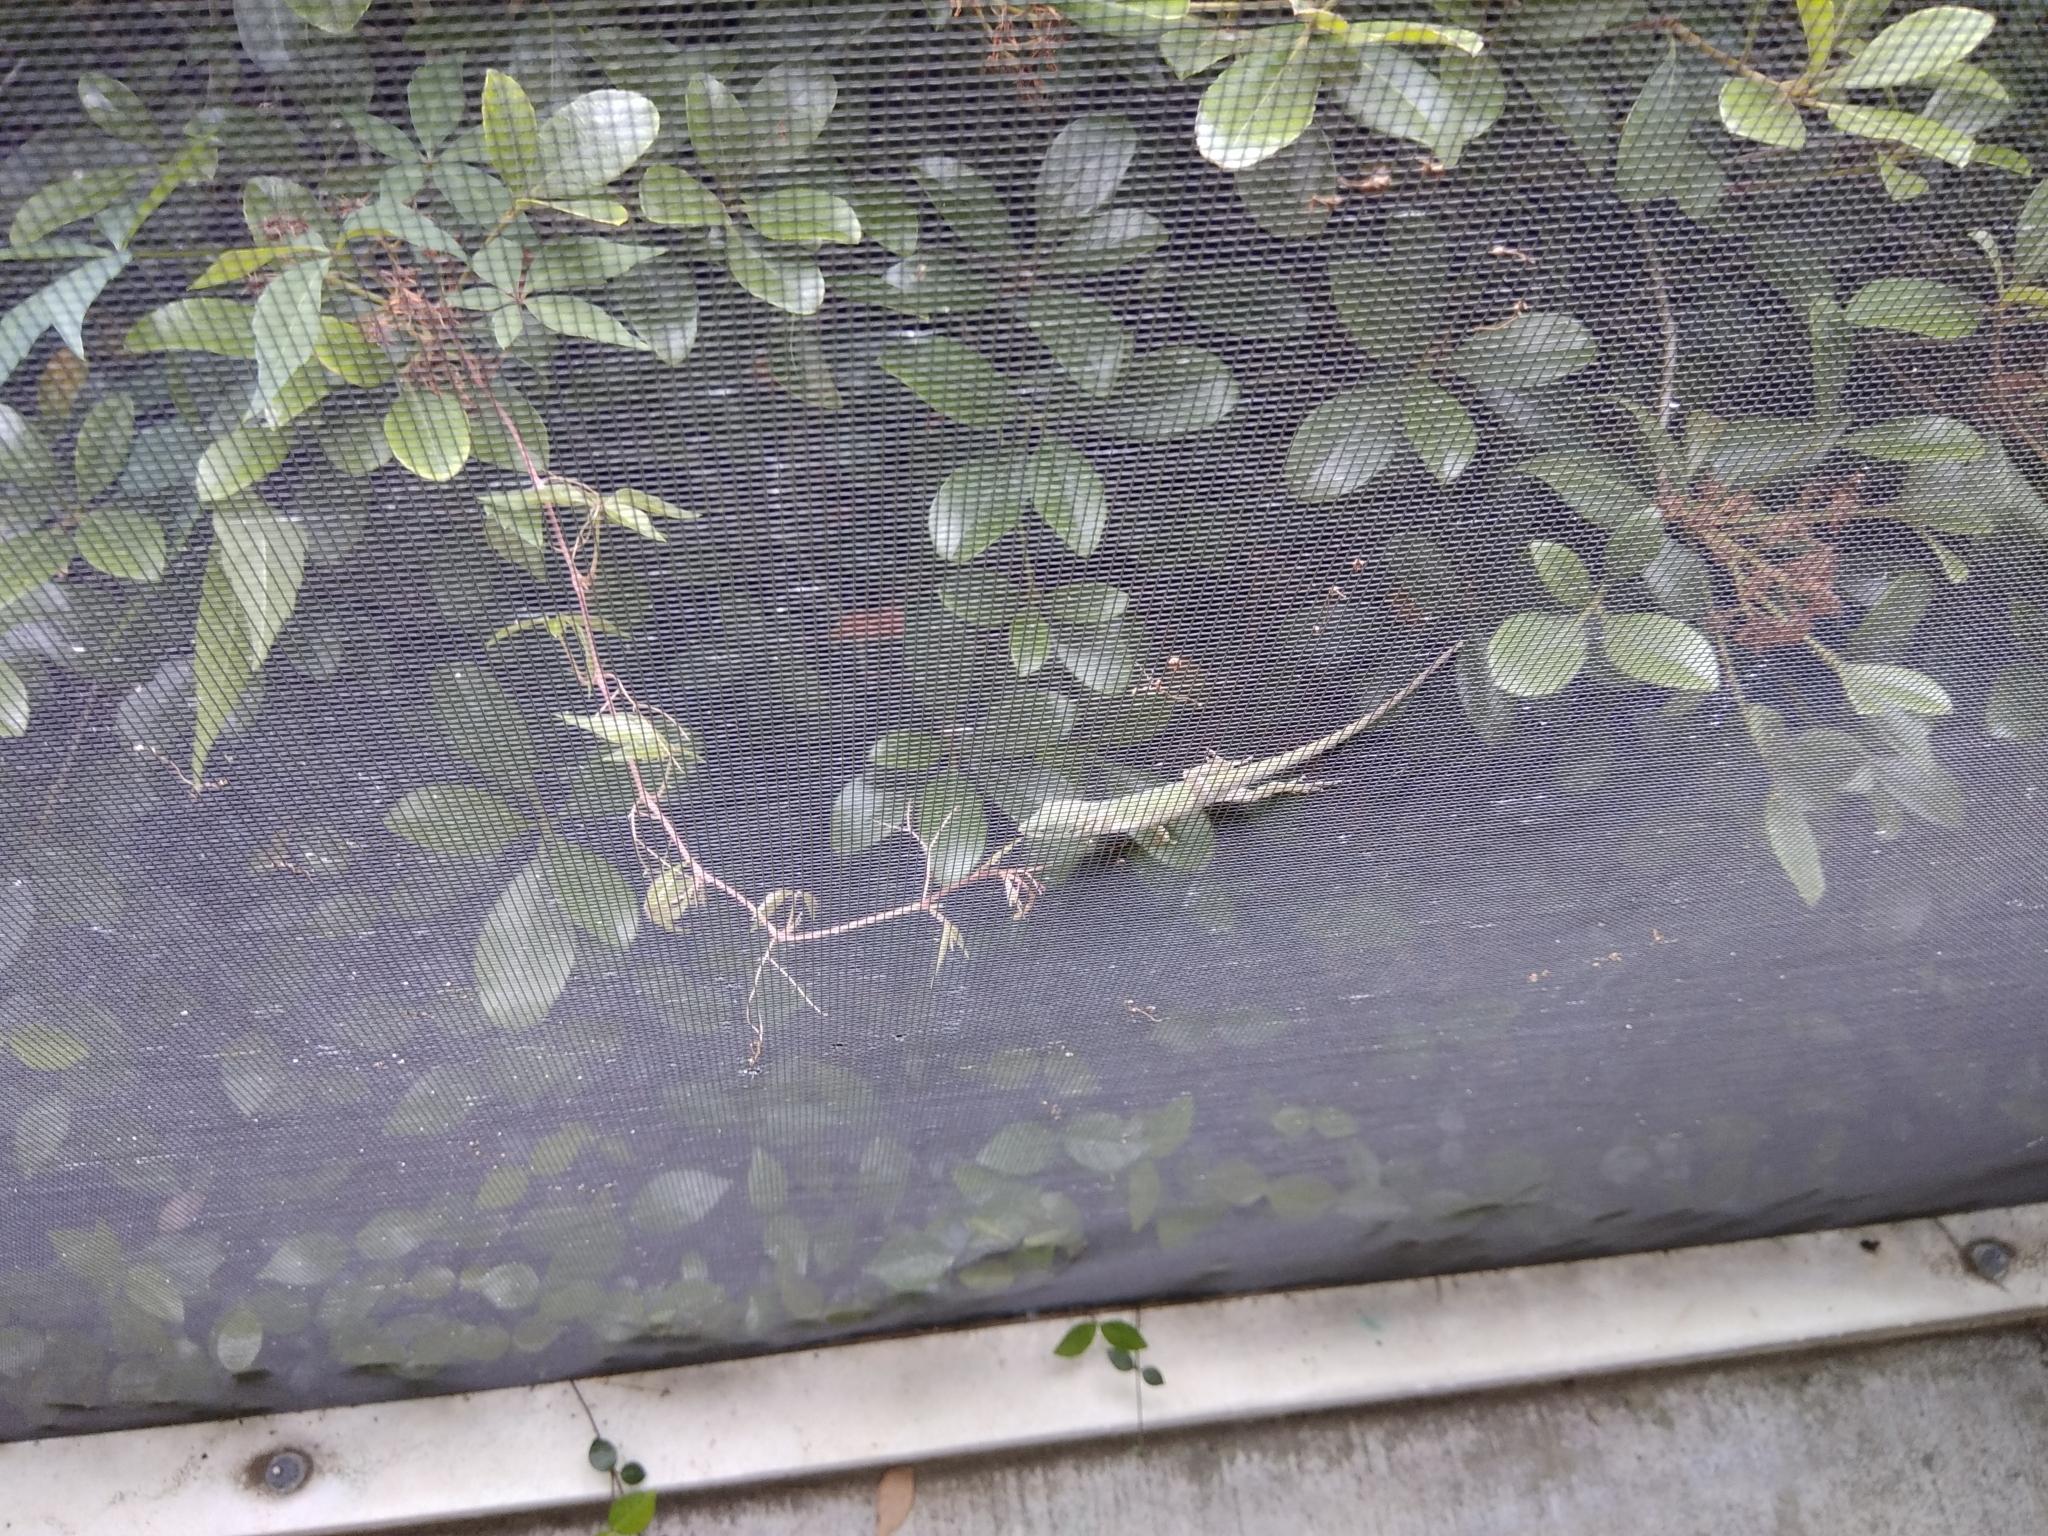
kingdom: Animalia
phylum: Chordata
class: Squamata
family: Dactyloidae
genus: Anolis
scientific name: Anolis carolinensis
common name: Green anole
